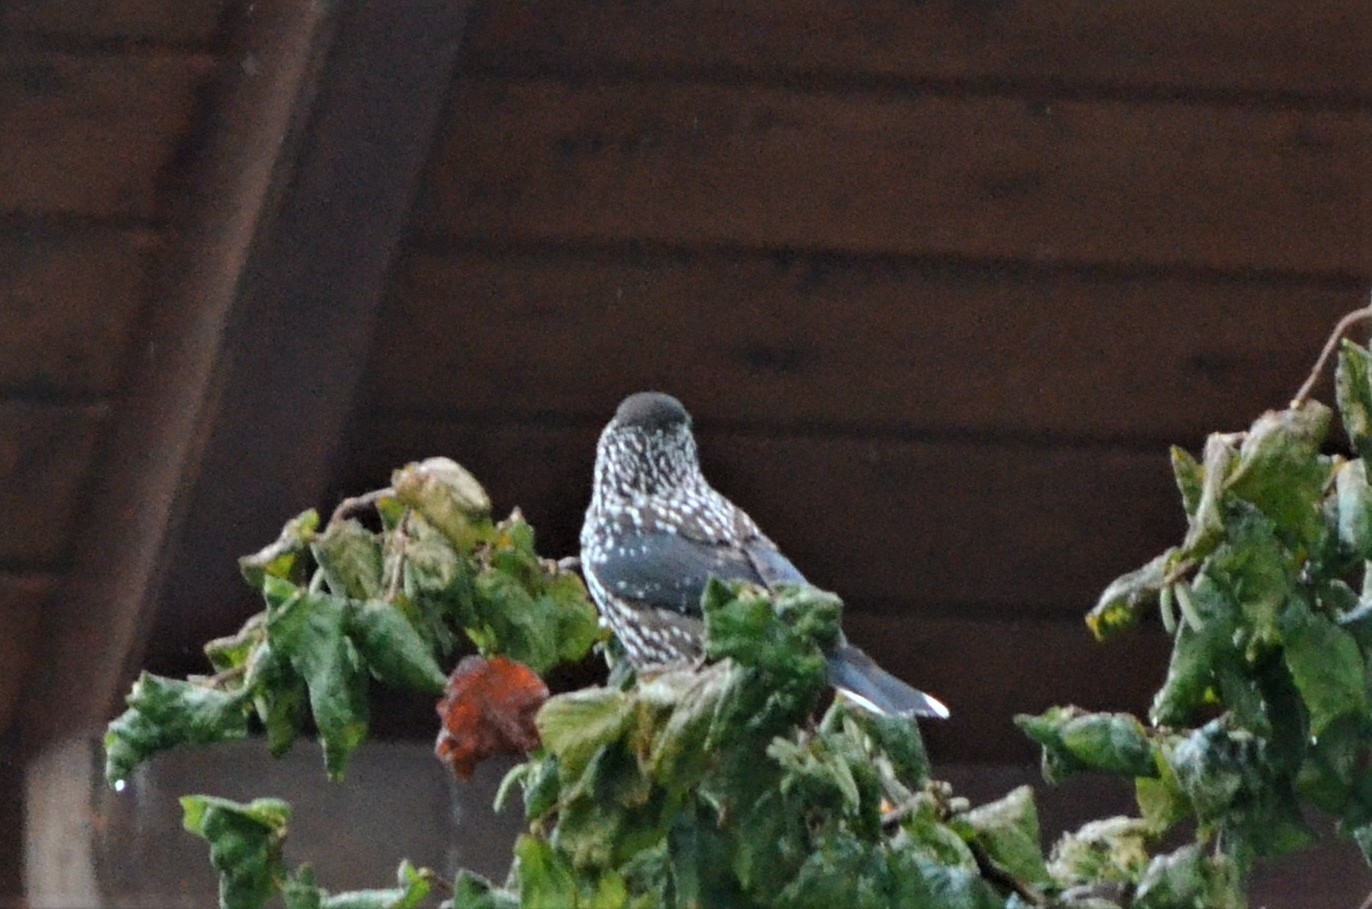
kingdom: Animalia
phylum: Chordata
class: Aves
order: Passeriformes
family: Corvidae
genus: Nucifraga
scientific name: Nucifraga caryocatactes
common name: Spotted nutcracker
